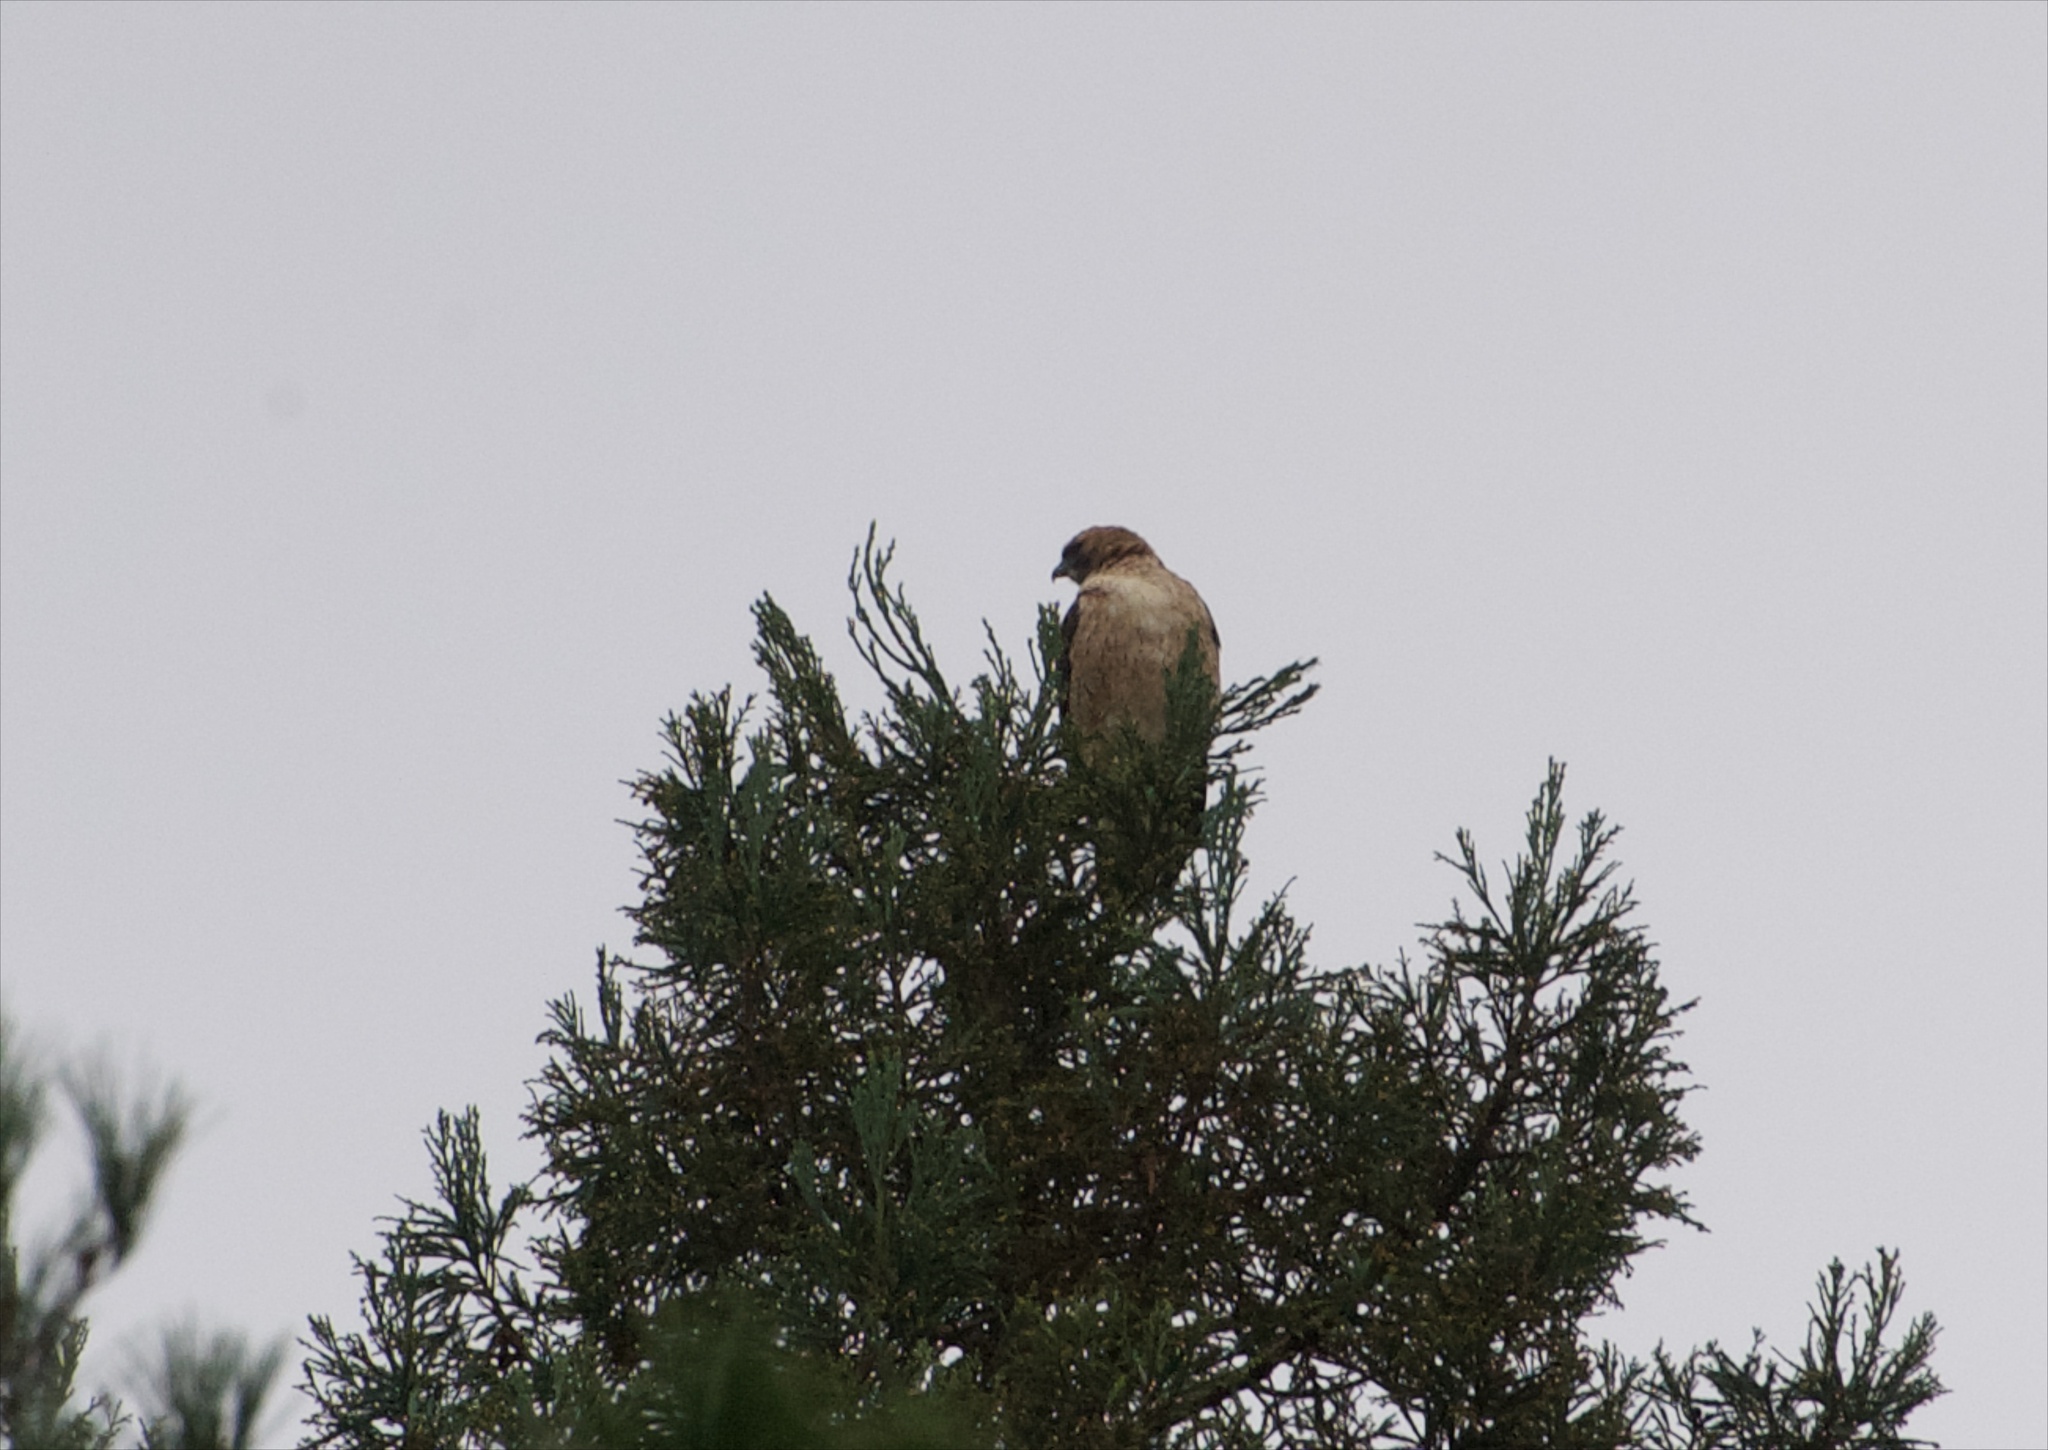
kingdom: Animalia
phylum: Chordata
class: Aves
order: Accipitriformes
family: Accipitridae
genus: Buteo
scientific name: Buteo jamaicensis
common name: Red-tailed hawk
